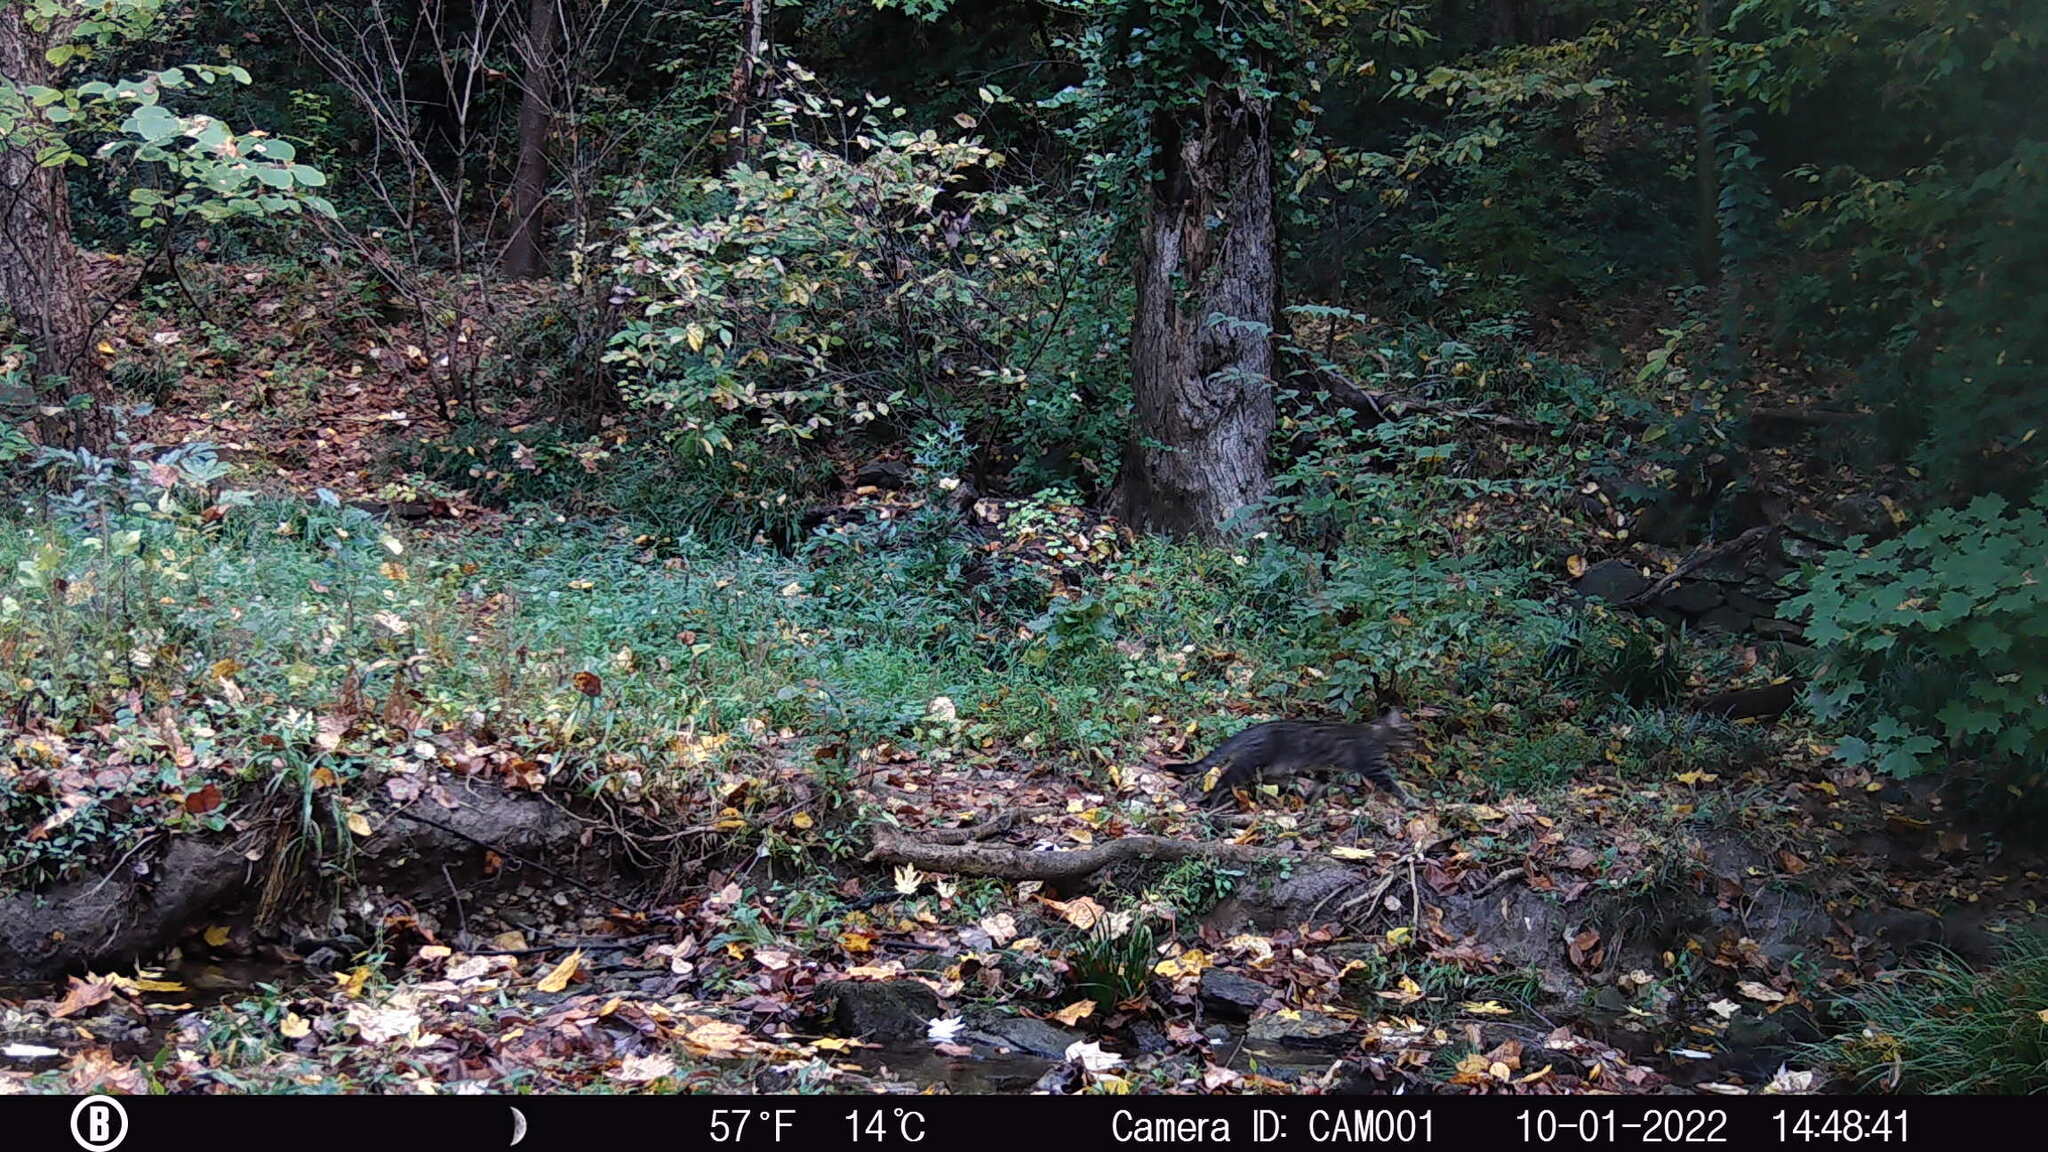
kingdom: Animalia
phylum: Chordata
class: Mammalia
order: Carnivora
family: Felidae
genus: Felis
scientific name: Felis catus
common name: Domestic cat
